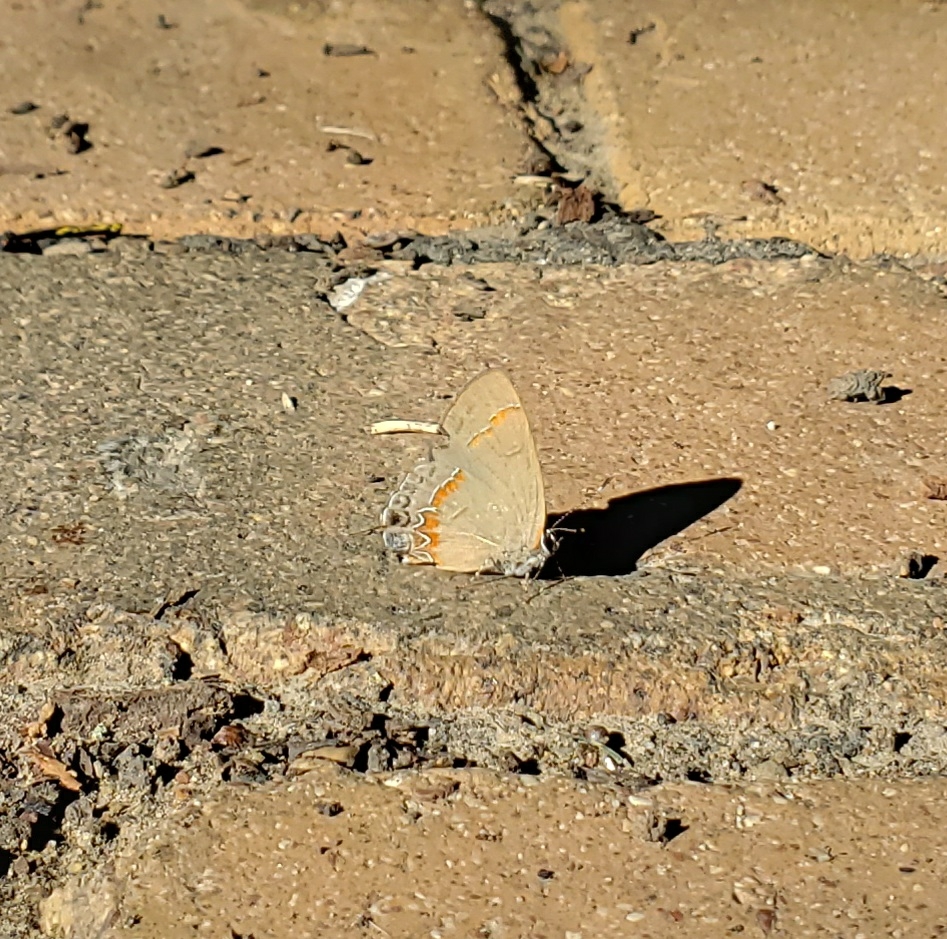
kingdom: Animalia
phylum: Arthropoda
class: Insecta
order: Lepidoptera
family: Lycaenidae
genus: Calycopis
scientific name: Calycopis cecrops
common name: Red-banded hairstreak
